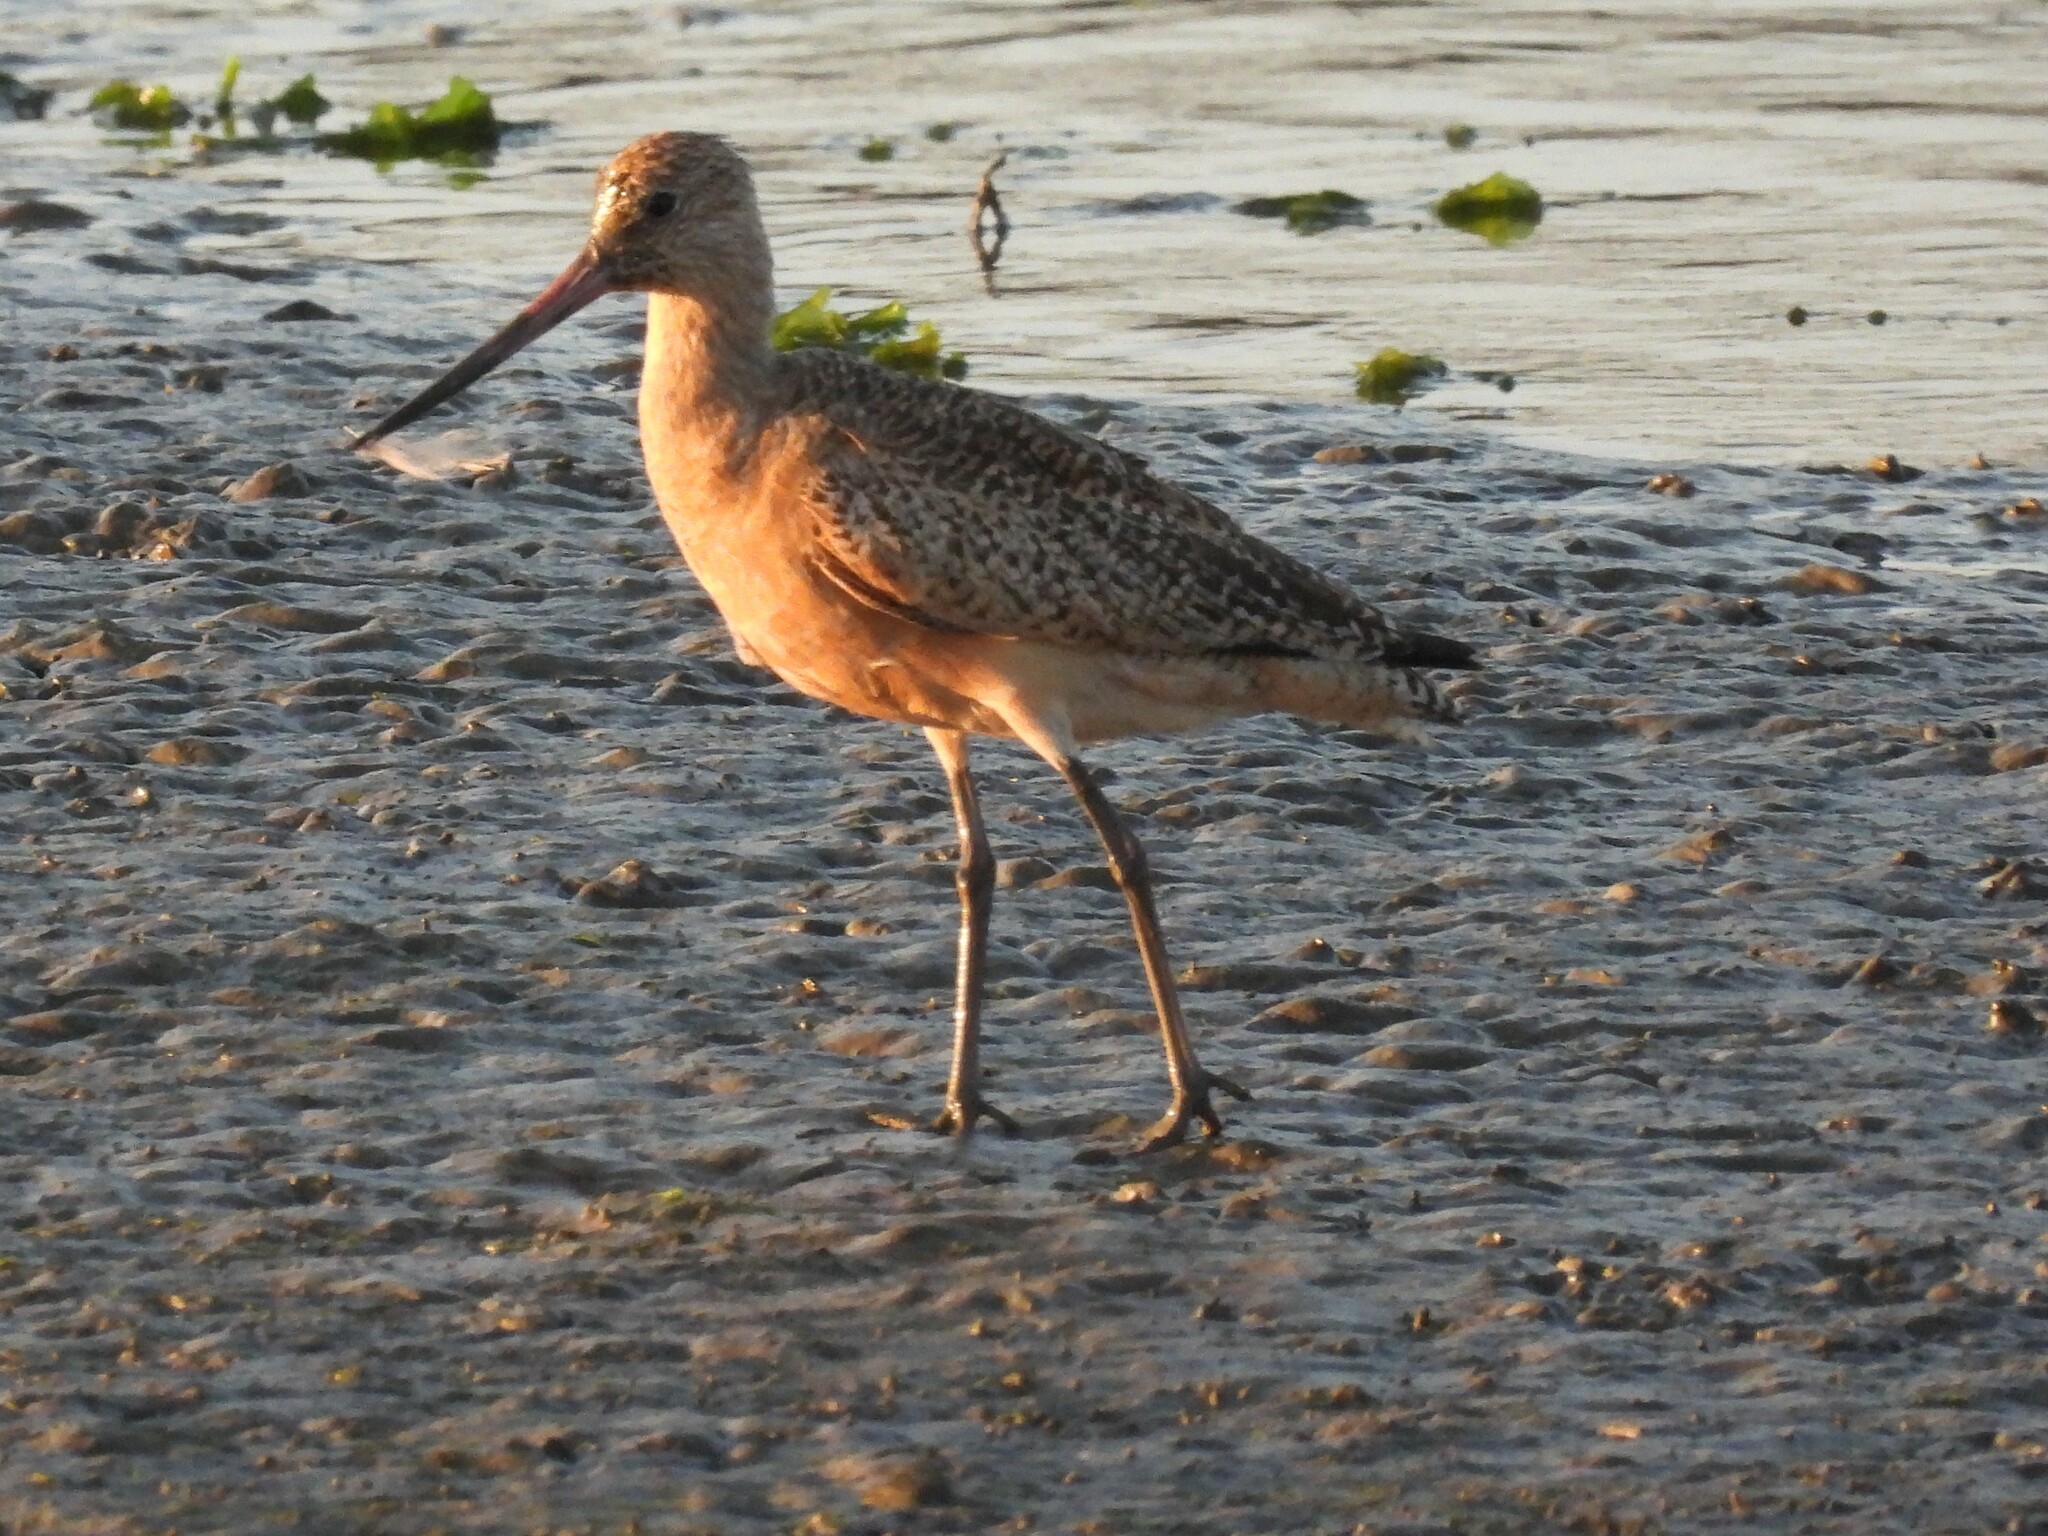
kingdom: Animalia
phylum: Chordata
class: Aves
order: Charadriiformes
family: Scolopacidae
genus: Limosa
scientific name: Limosa fedoa
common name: Marbled godwit
